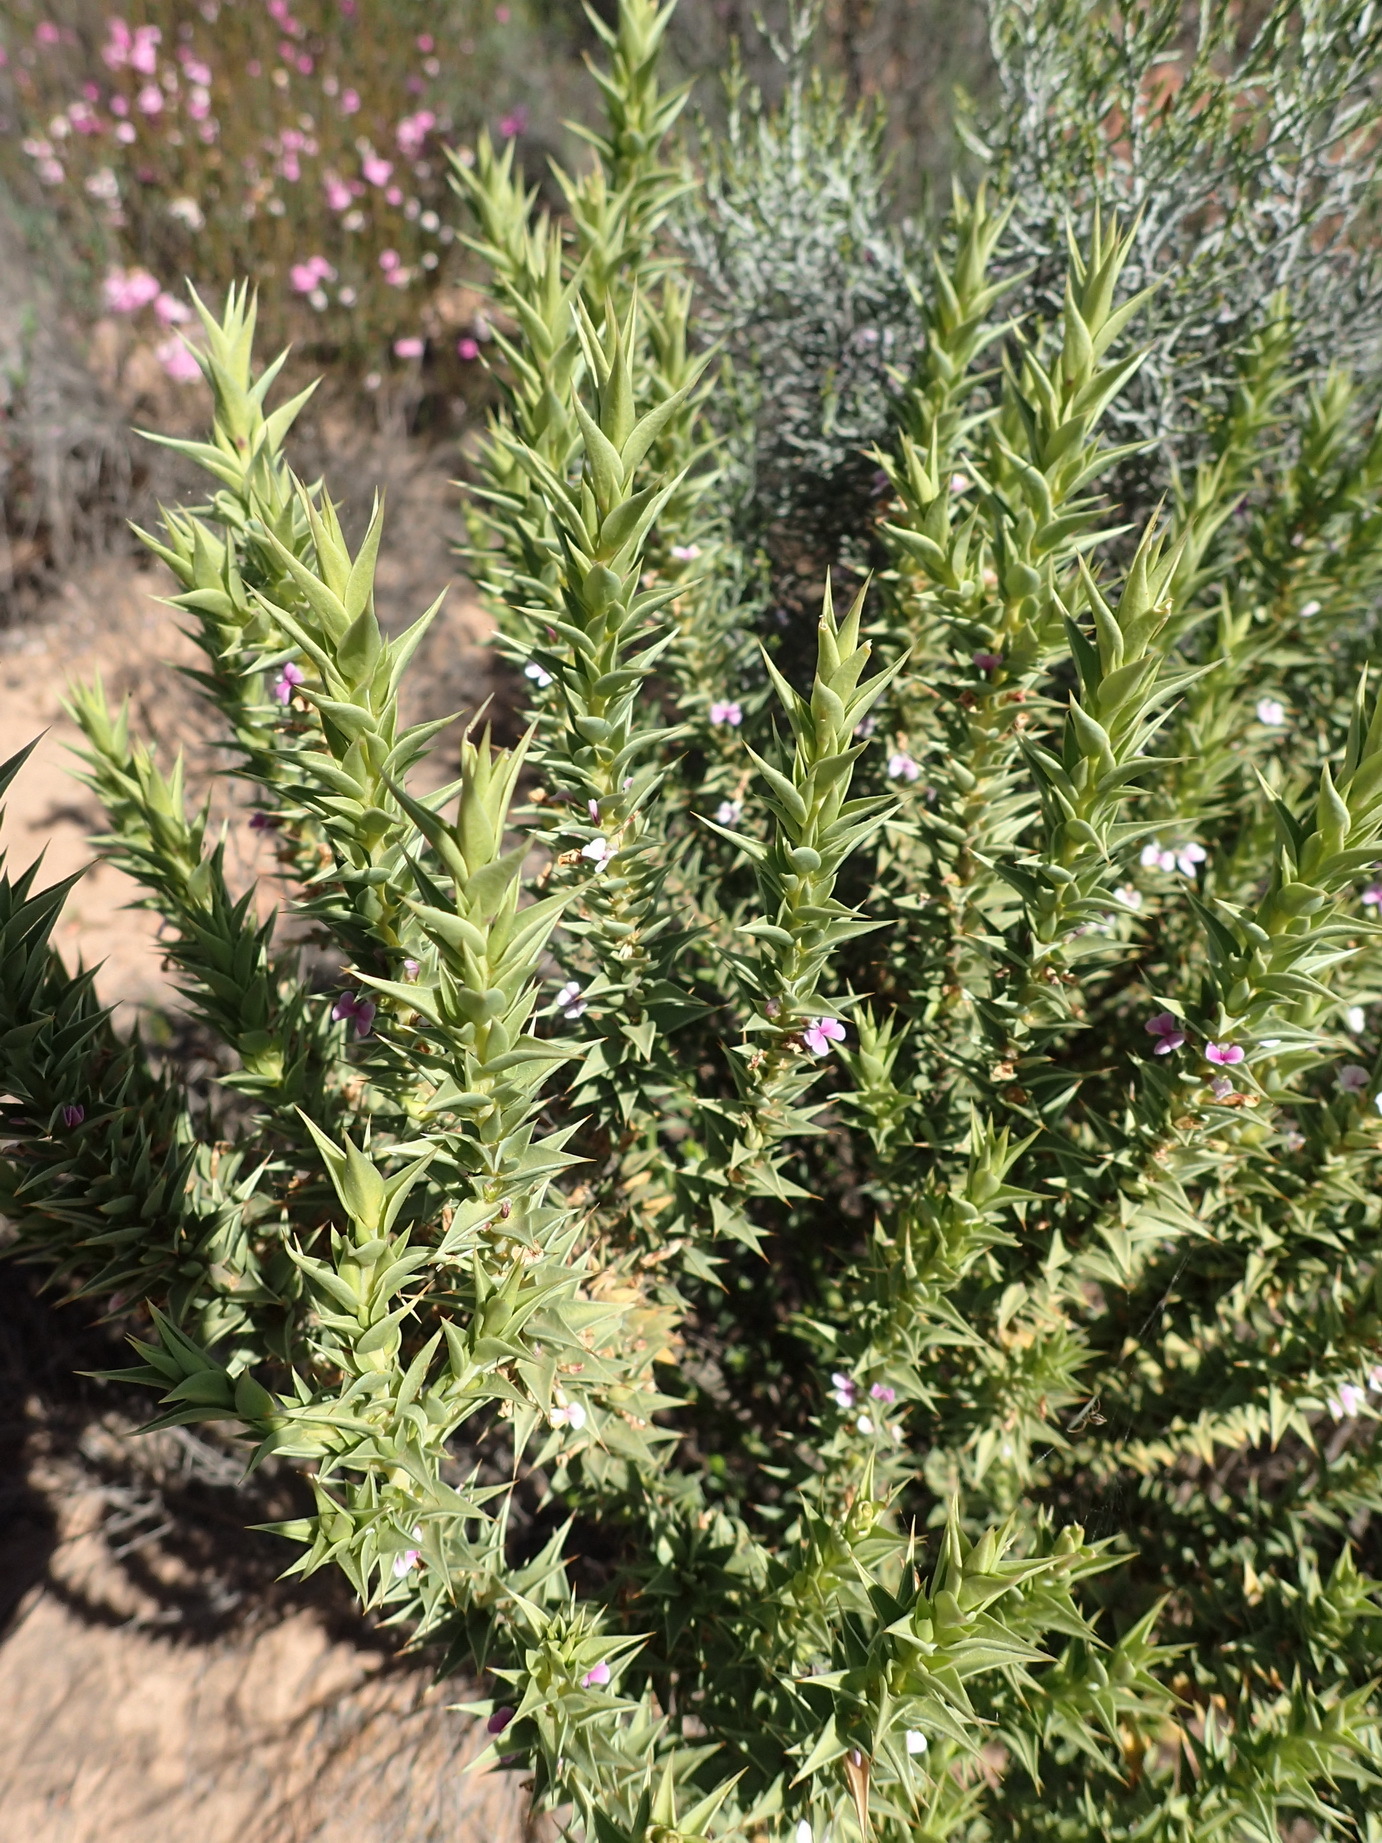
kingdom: Plantae
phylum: Tracheophyta
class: Magnoliopsida
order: Fabales
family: Polygalaceae
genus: Muraltia
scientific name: Muraltia cliffortiifolia
